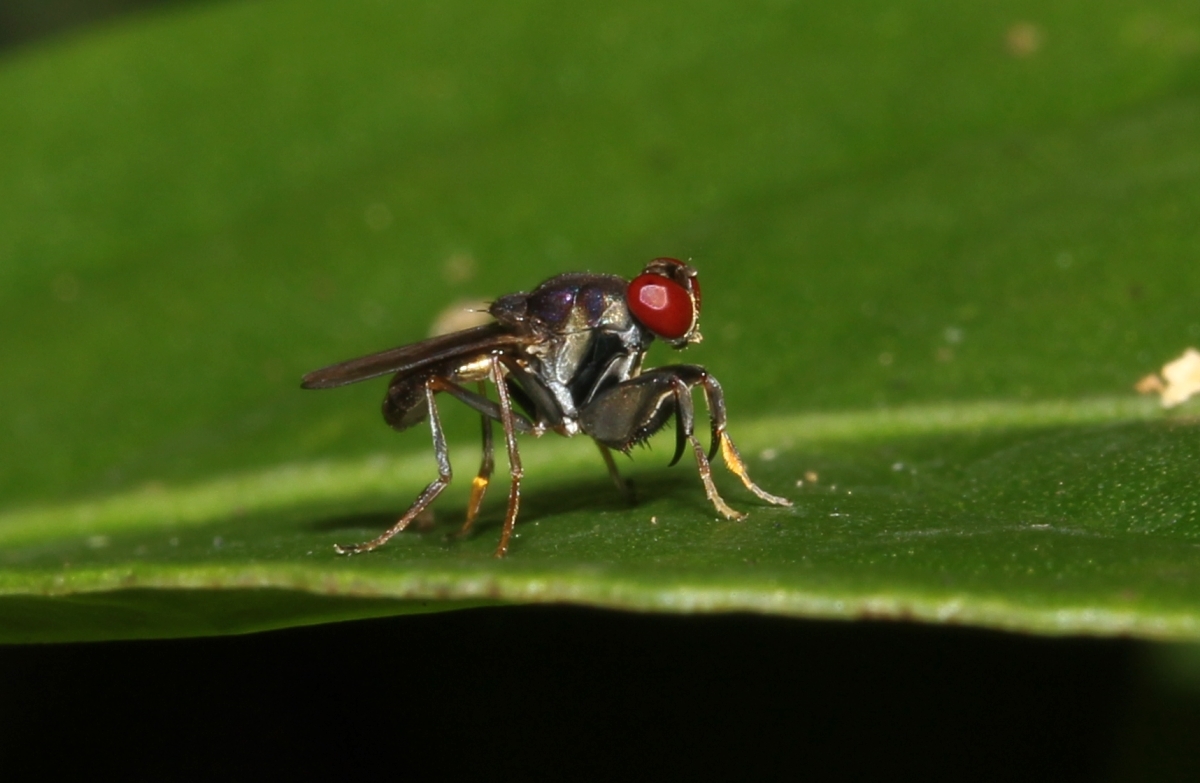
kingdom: Animalia
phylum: Arthropoda
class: Insecta
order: Diptera
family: Ephydridae
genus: Ochthera
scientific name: Ochthera
